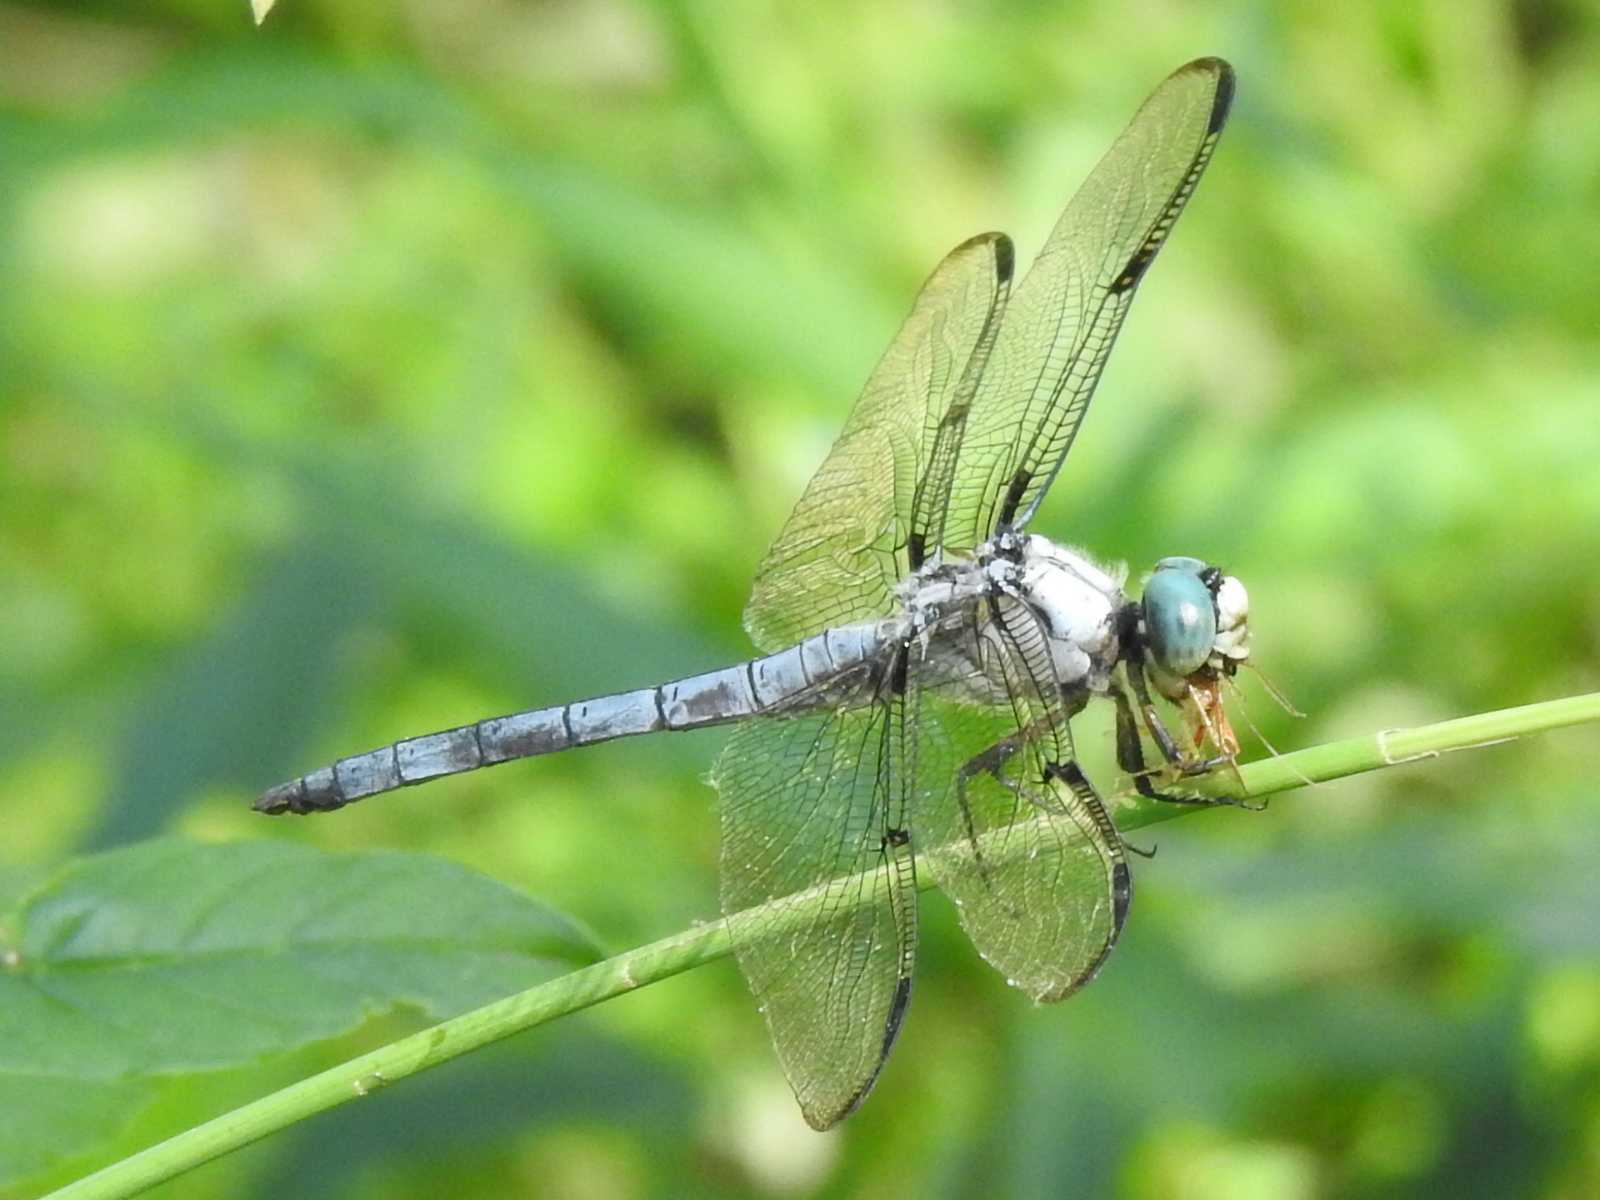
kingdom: Animalia
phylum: Arthropoda
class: Insecta
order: Odonata
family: Libellulidae
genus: Libellula
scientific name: Libellula vibrans
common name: Great blue skimmer
